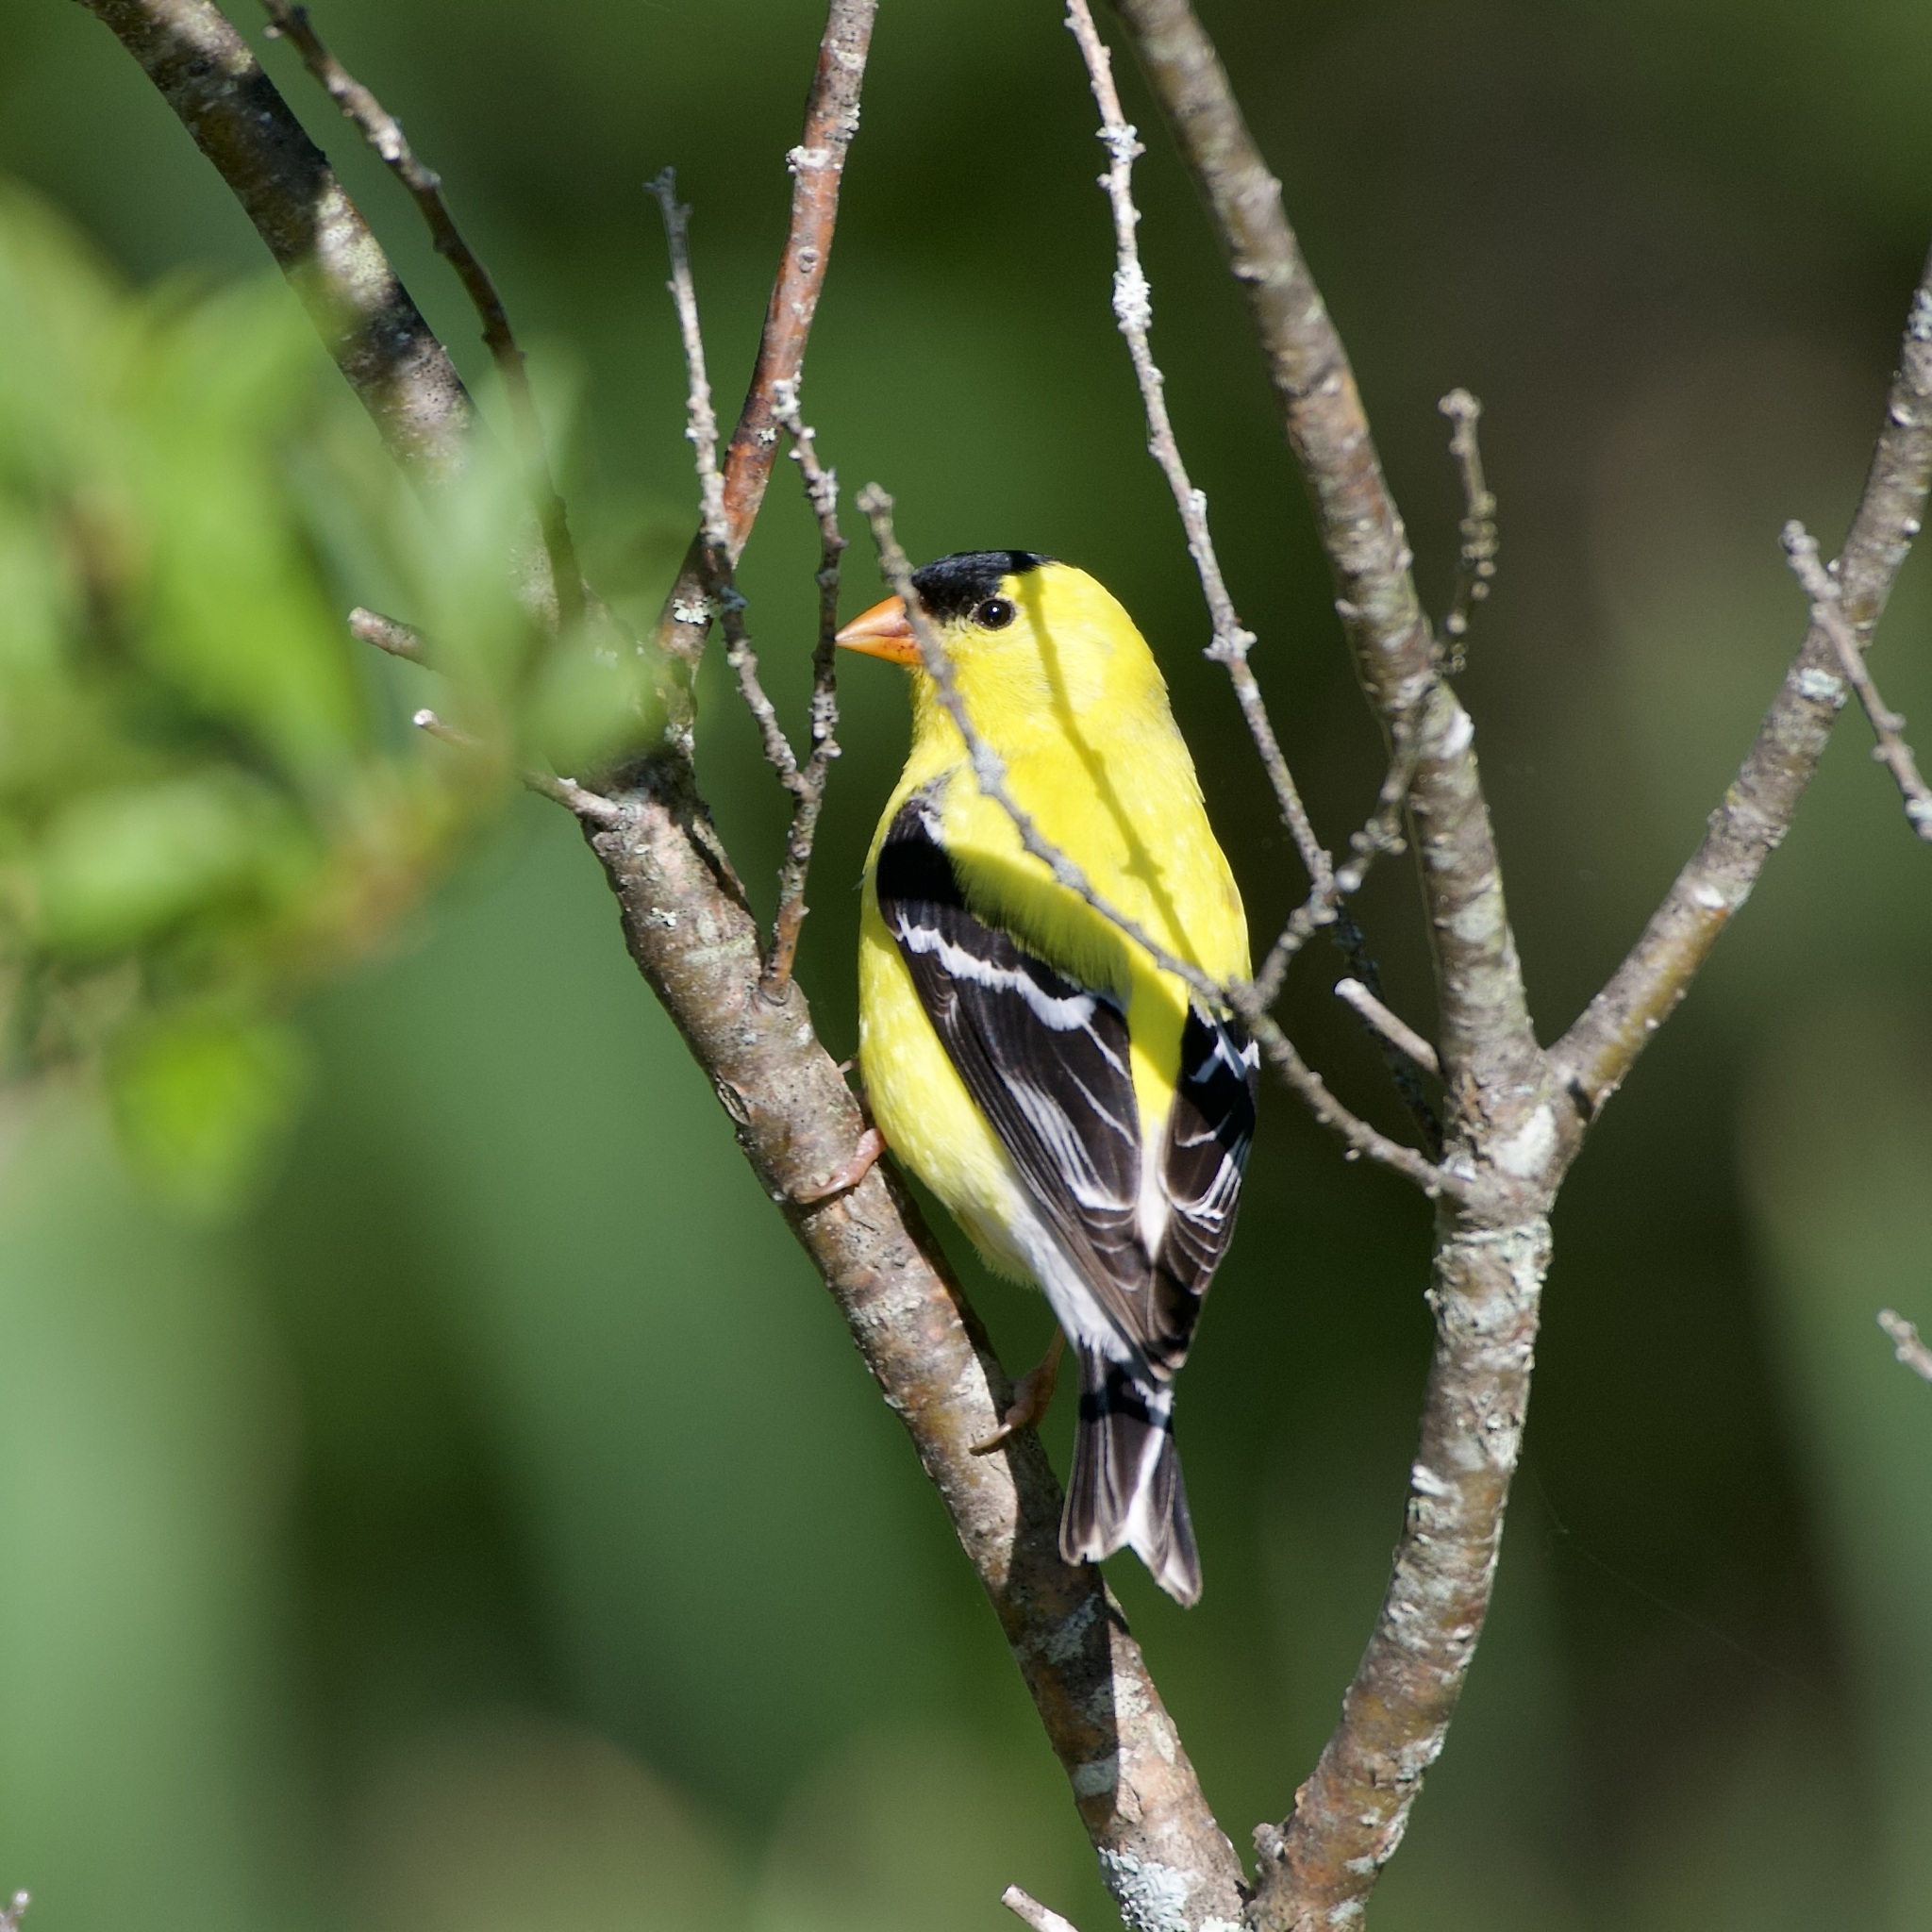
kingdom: Animalia
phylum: Chordata
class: Aves
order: Passeriformes
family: Fringillidae
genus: Spinus
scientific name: Spinus tristis
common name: American goldfinch
